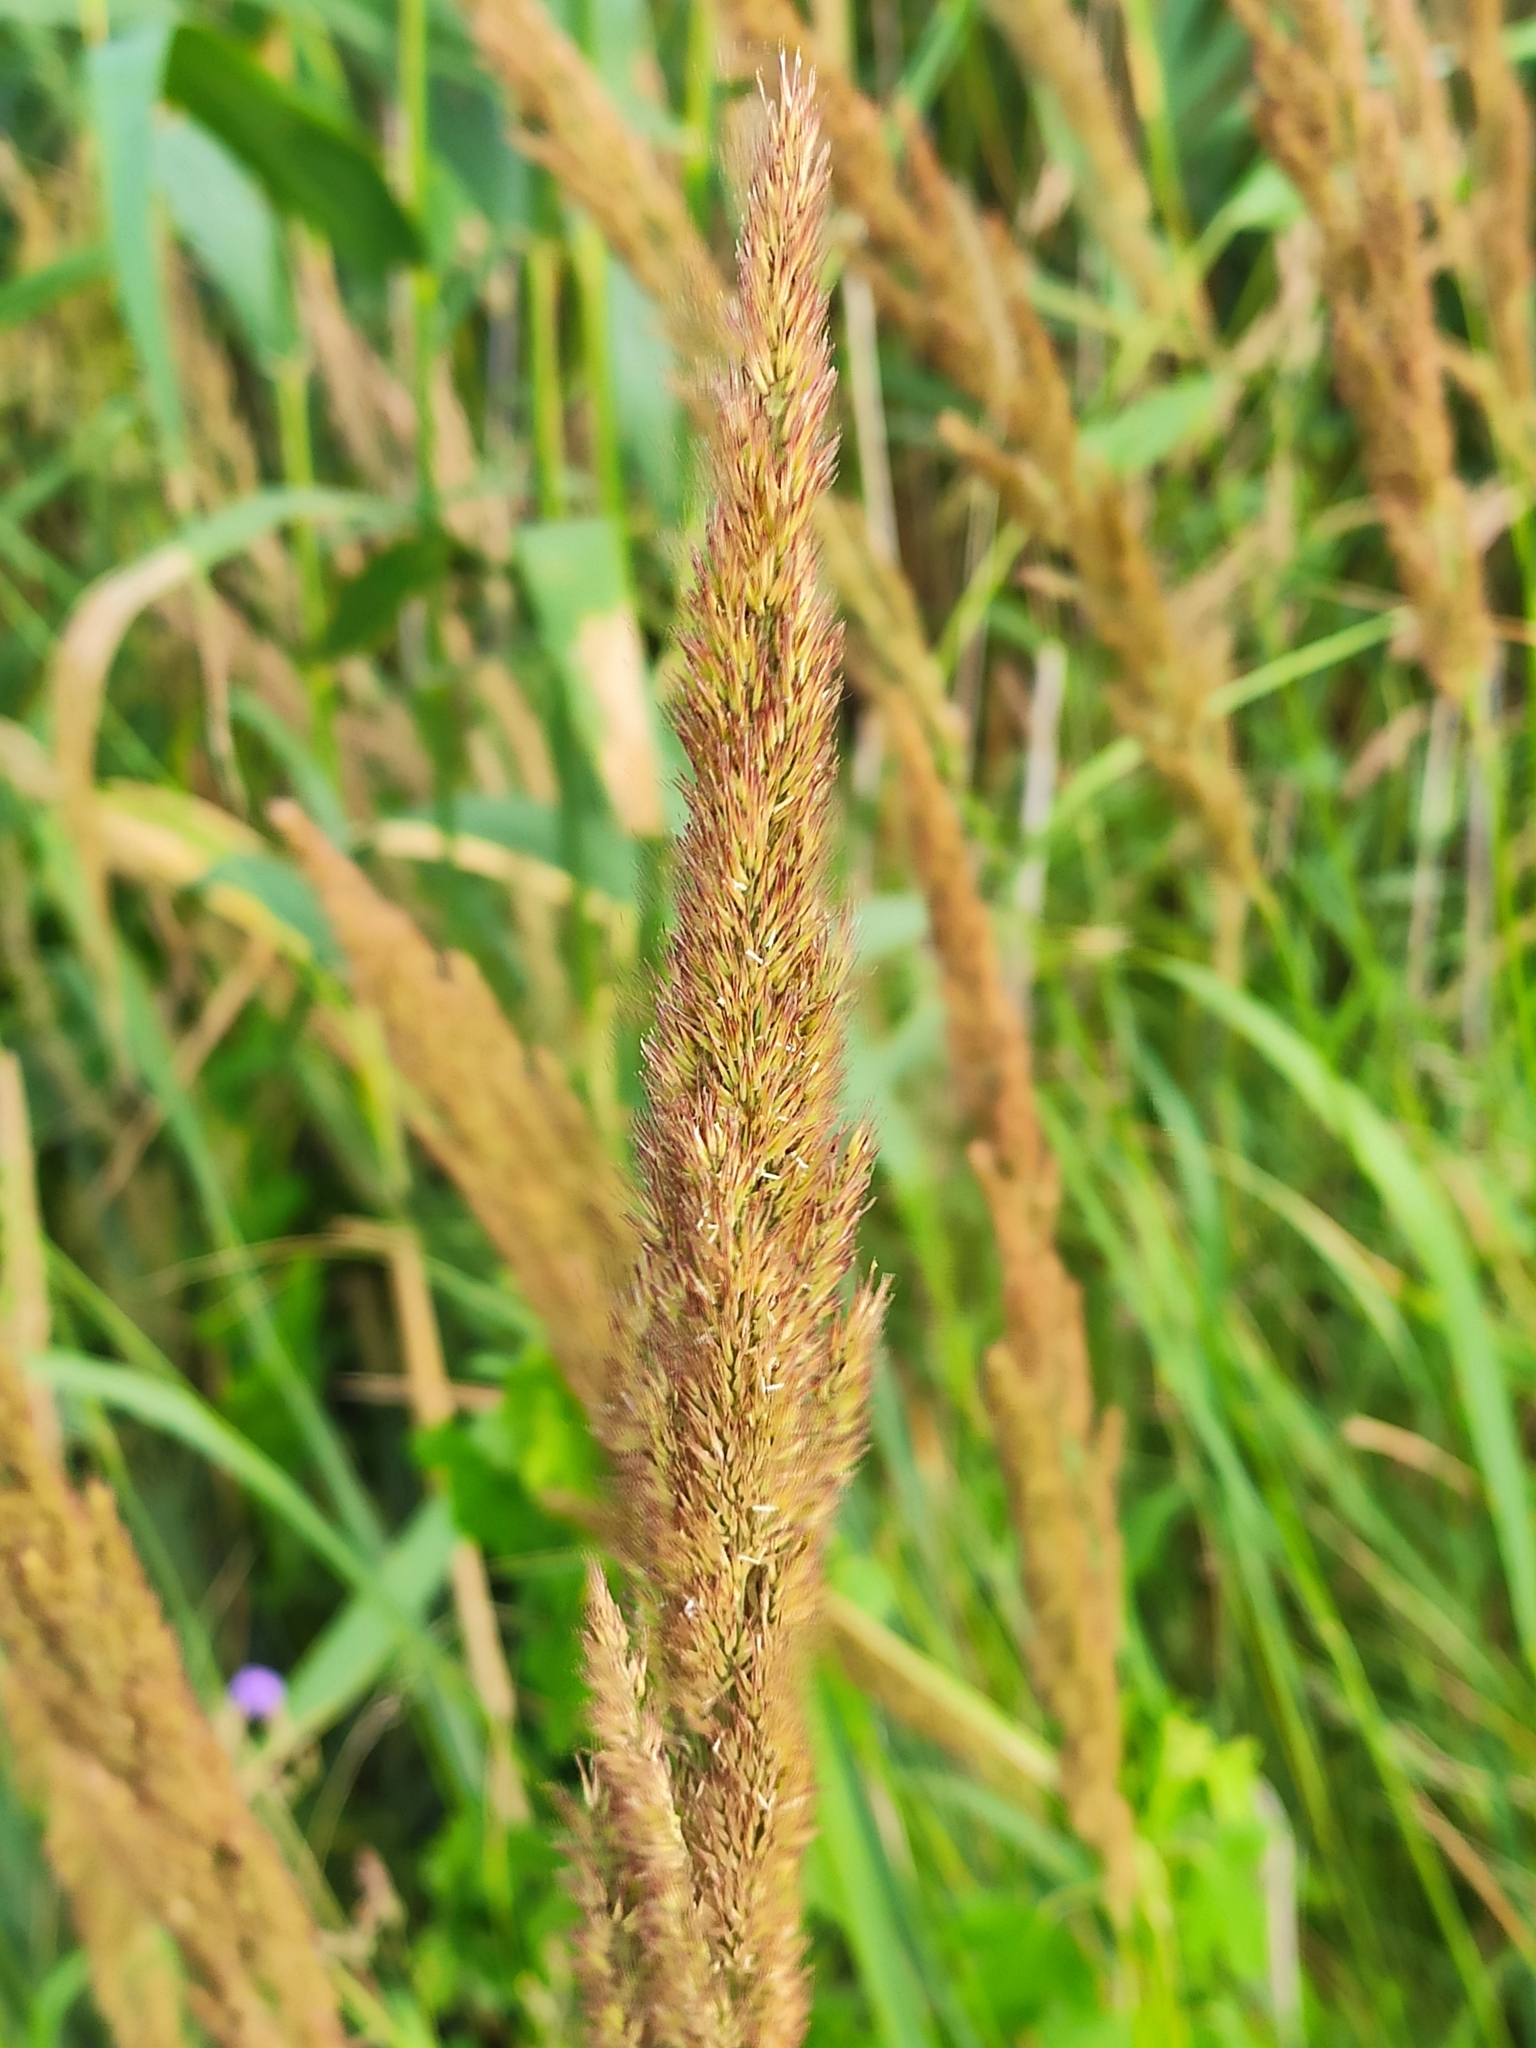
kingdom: Plantae
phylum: Tracheophyta
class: Liliopsida
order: Poales
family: Poaceae
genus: Calamagrostis
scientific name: Calamagrostis epigejos
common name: Wood small-reed
